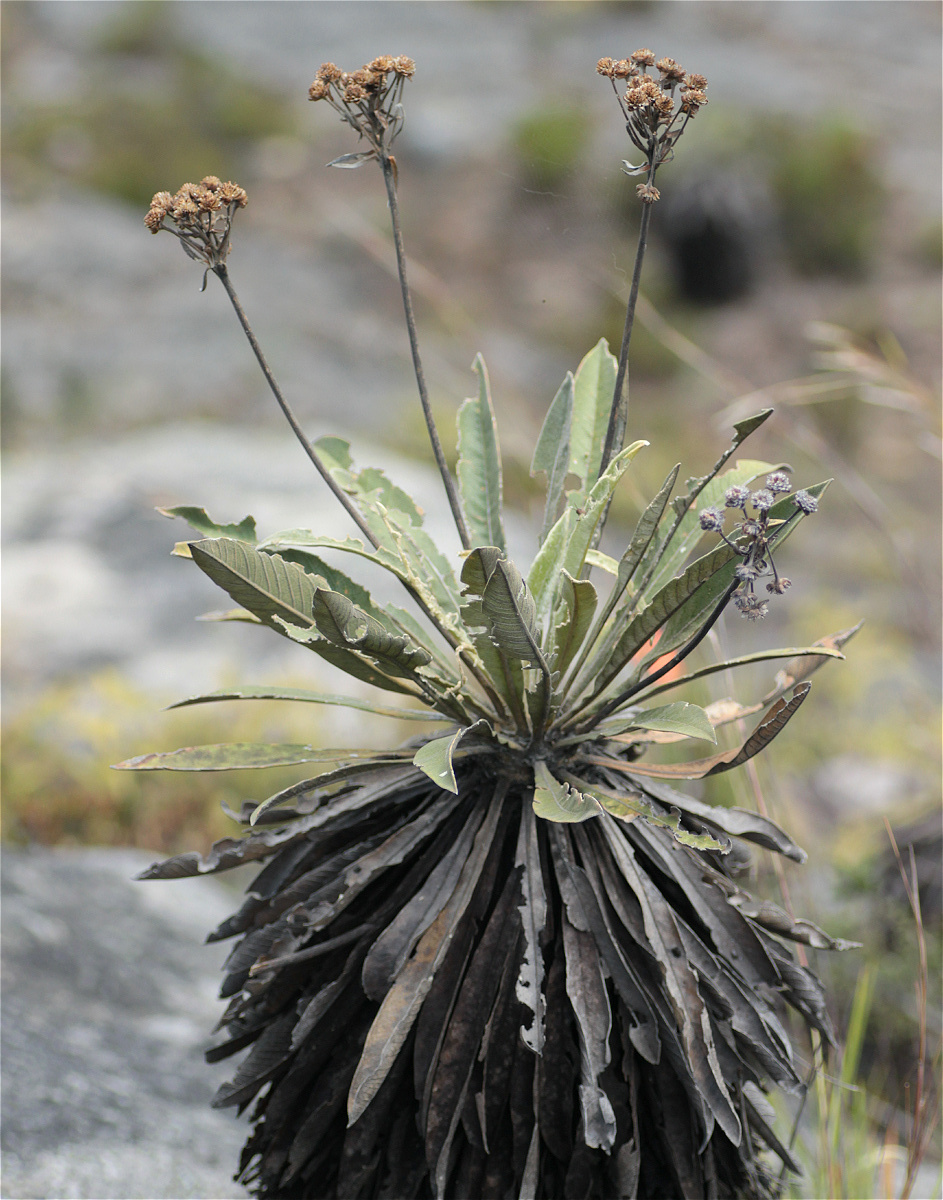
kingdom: Plantae
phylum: Tracheophyta
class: Magnoliopsida
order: Asterales
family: Asteraceae
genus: Espeletia
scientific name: Espeletia corymbosa
